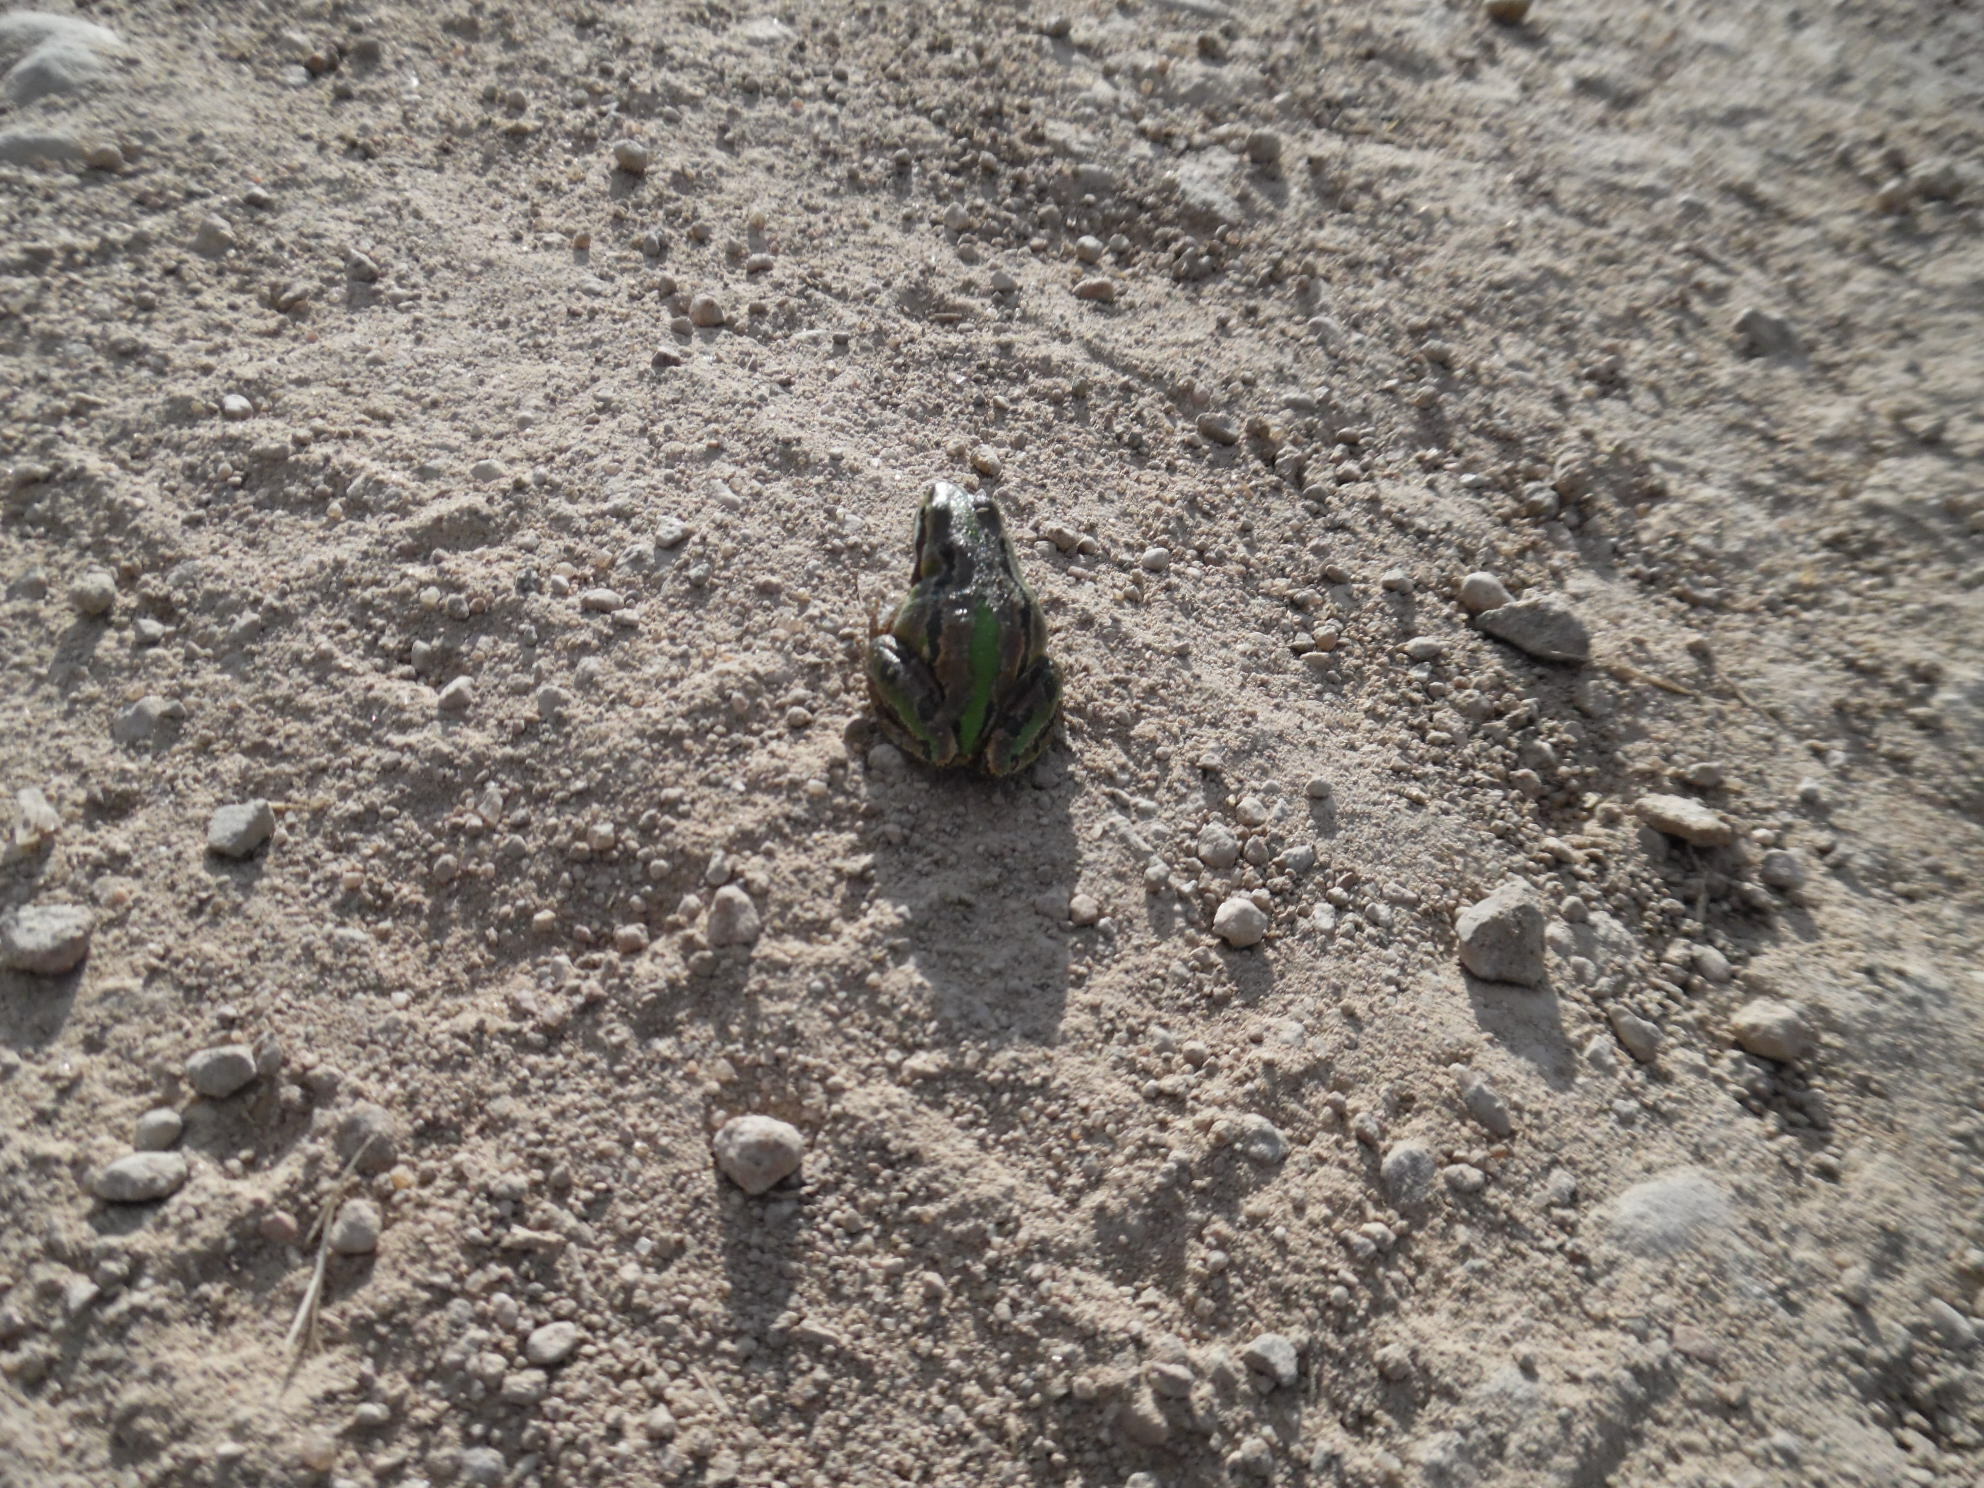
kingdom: Animalia
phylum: Chordata
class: Amphibia
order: Anura
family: Hylidae
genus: Dryophytes
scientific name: Dryophytes eximius
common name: Mountain treefrog
